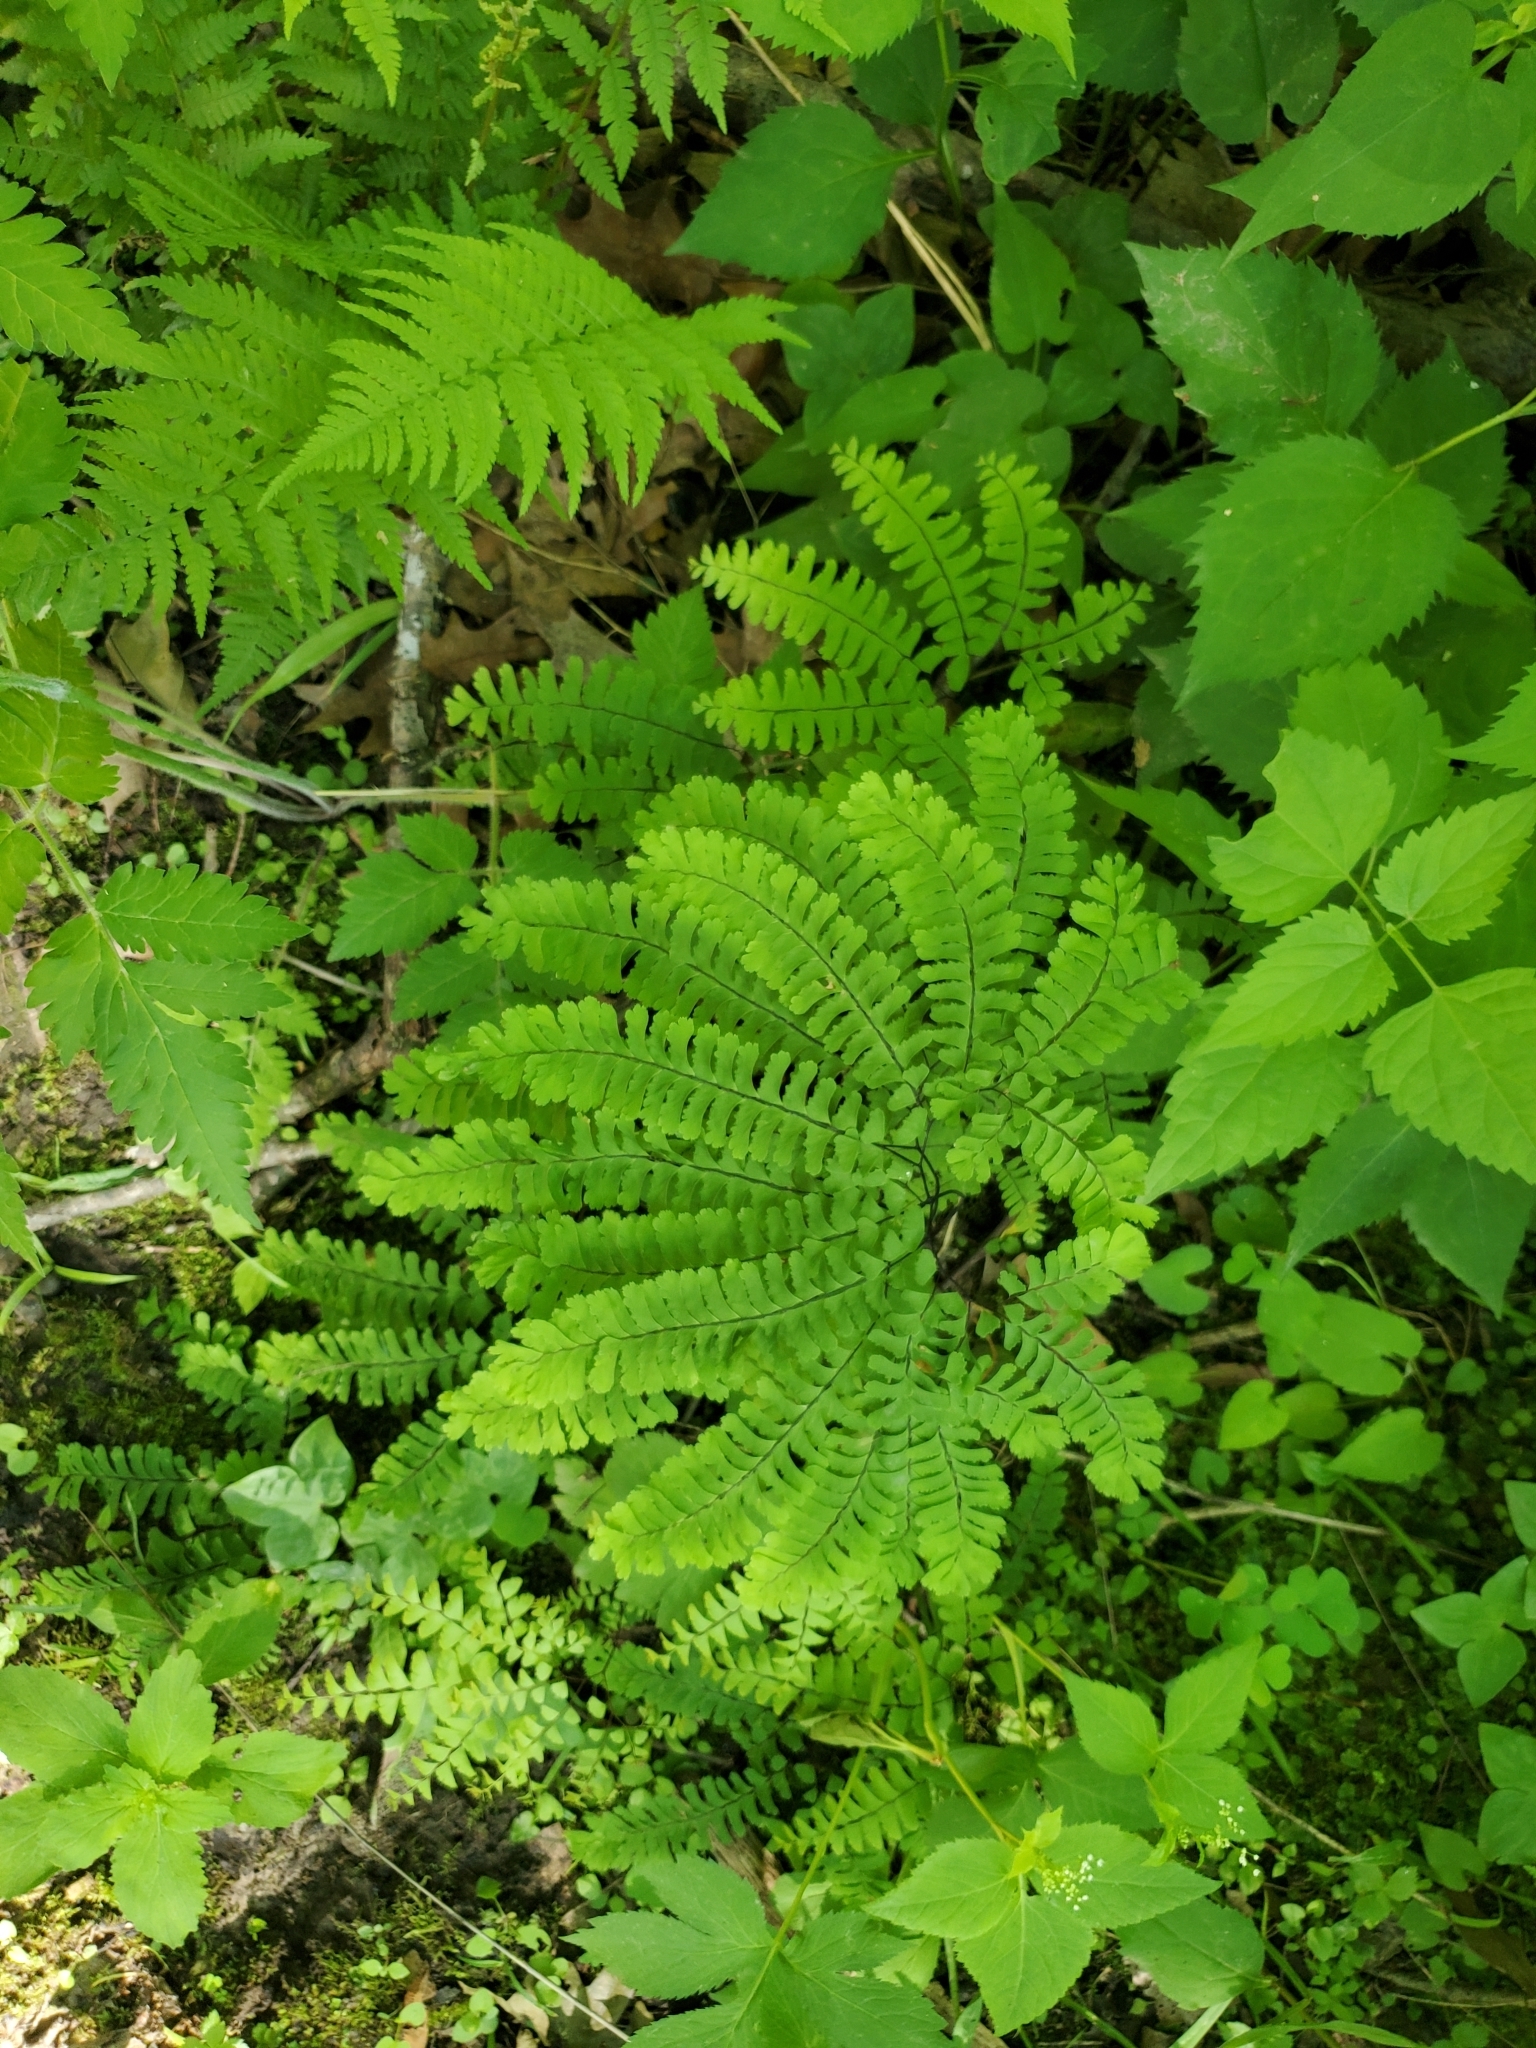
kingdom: Plantae
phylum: Tracheophyta
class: Polypodiopsida
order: Polypodiales
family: Pteridaceae
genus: Adiantum
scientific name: Adiantum pedatum
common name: Five-finger fern
